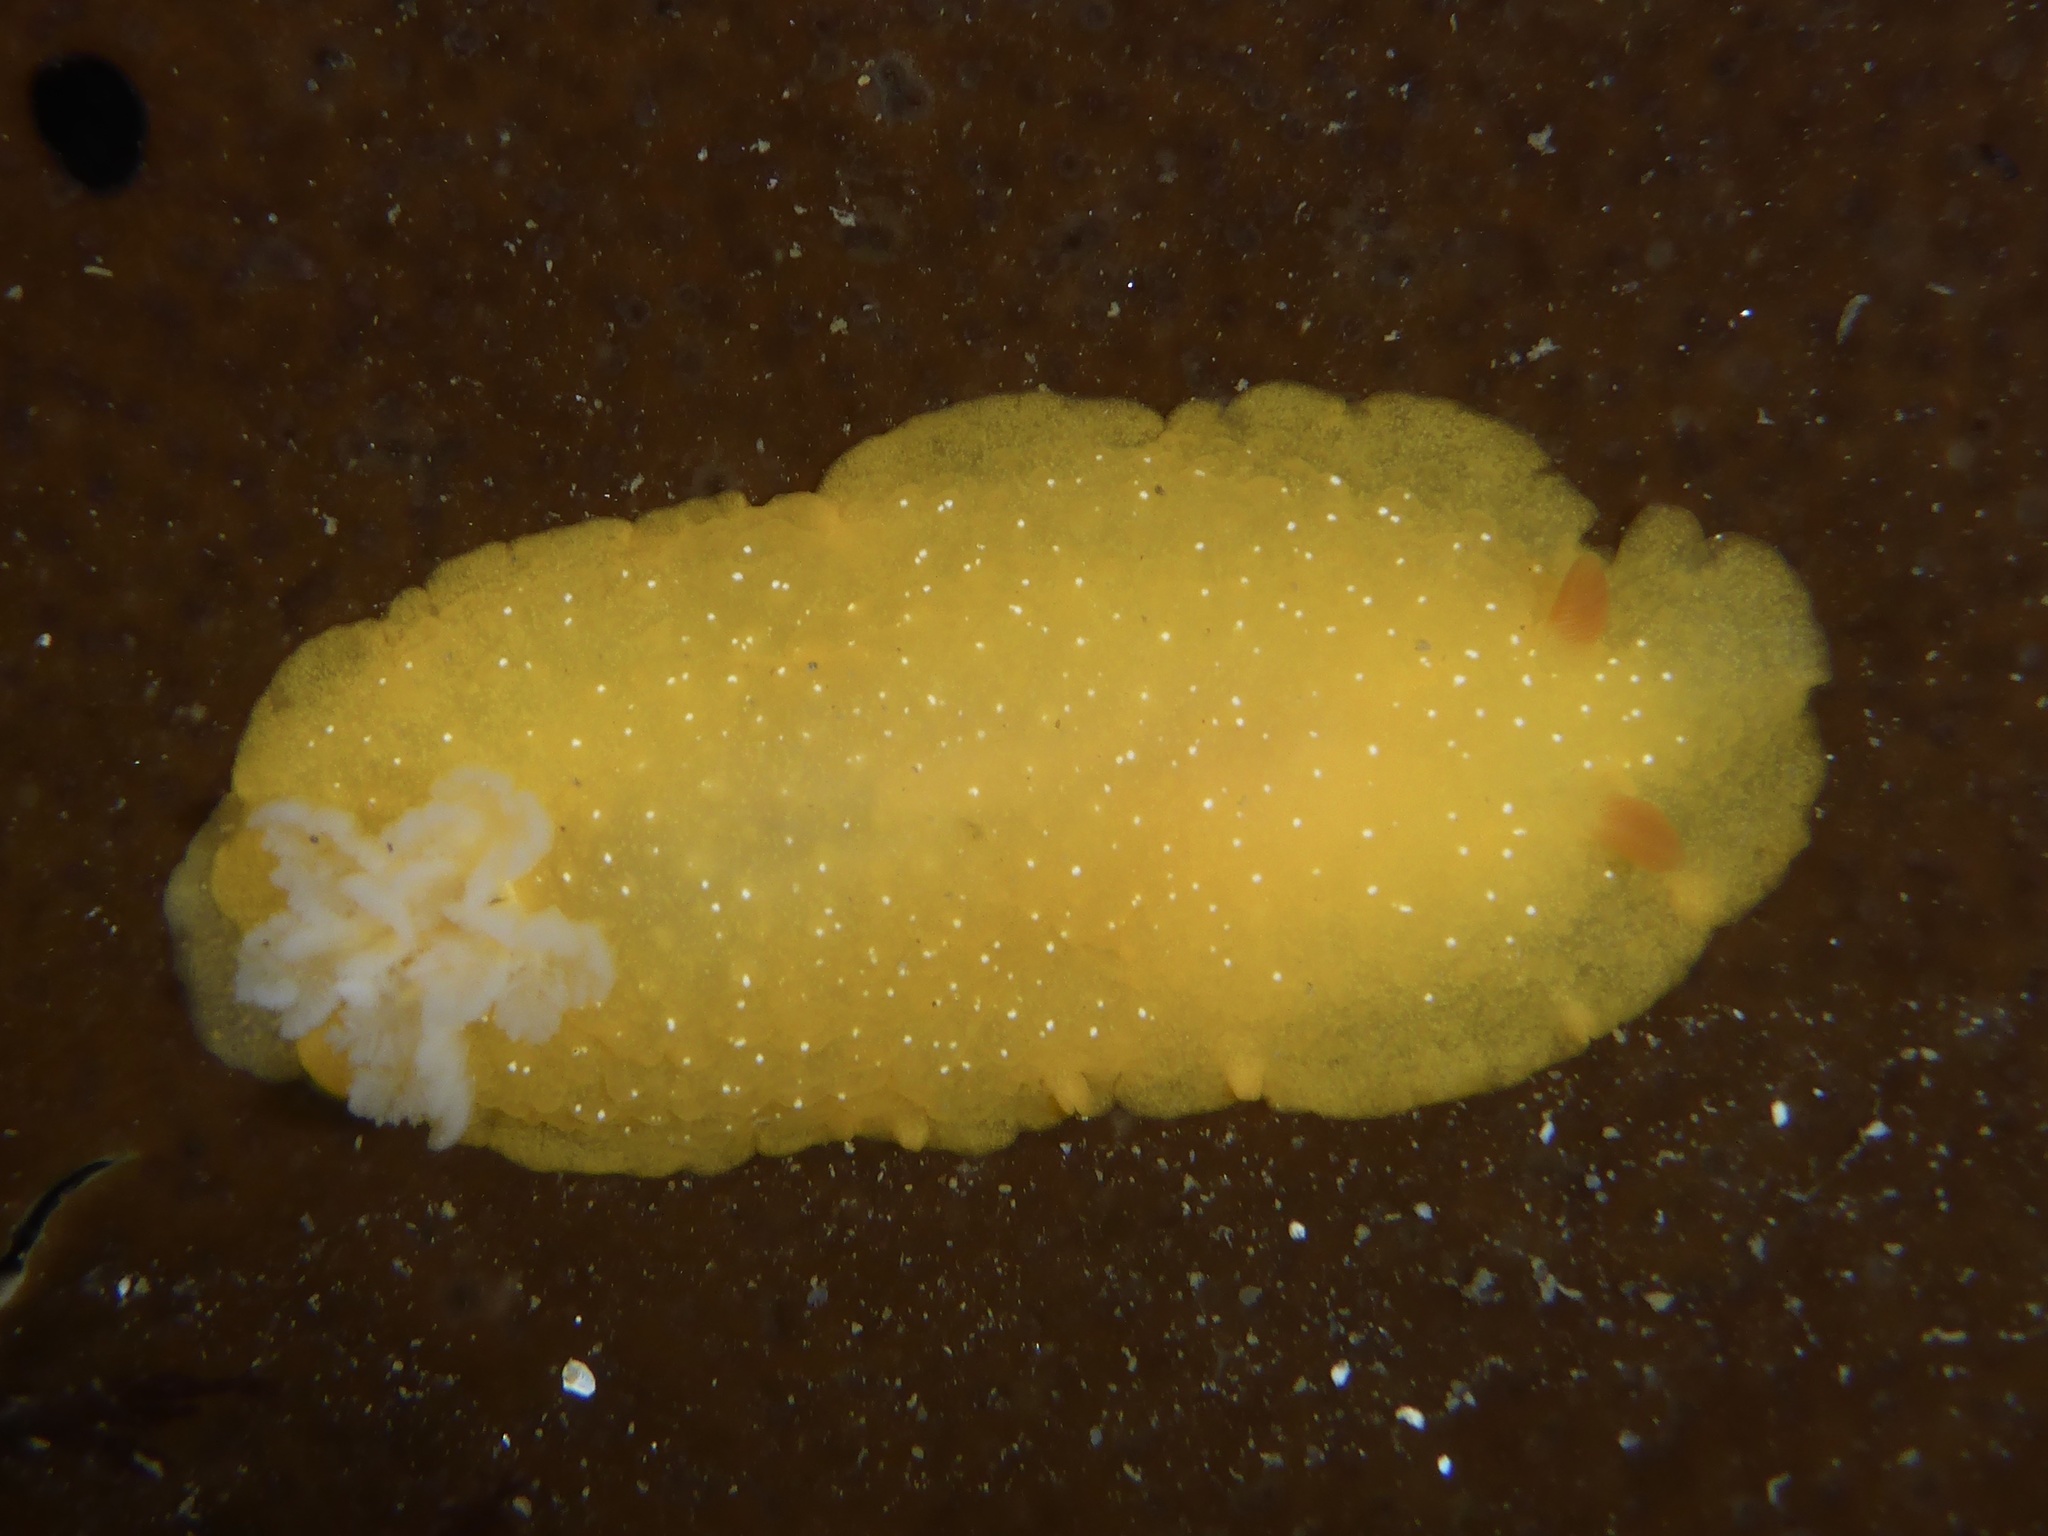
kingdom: Animalia
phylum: Mollusca
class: Gastropoda
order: Nudibranchia
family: Dendrodorididae
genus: Doriopsilla
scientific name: Doriopsilla fulva
